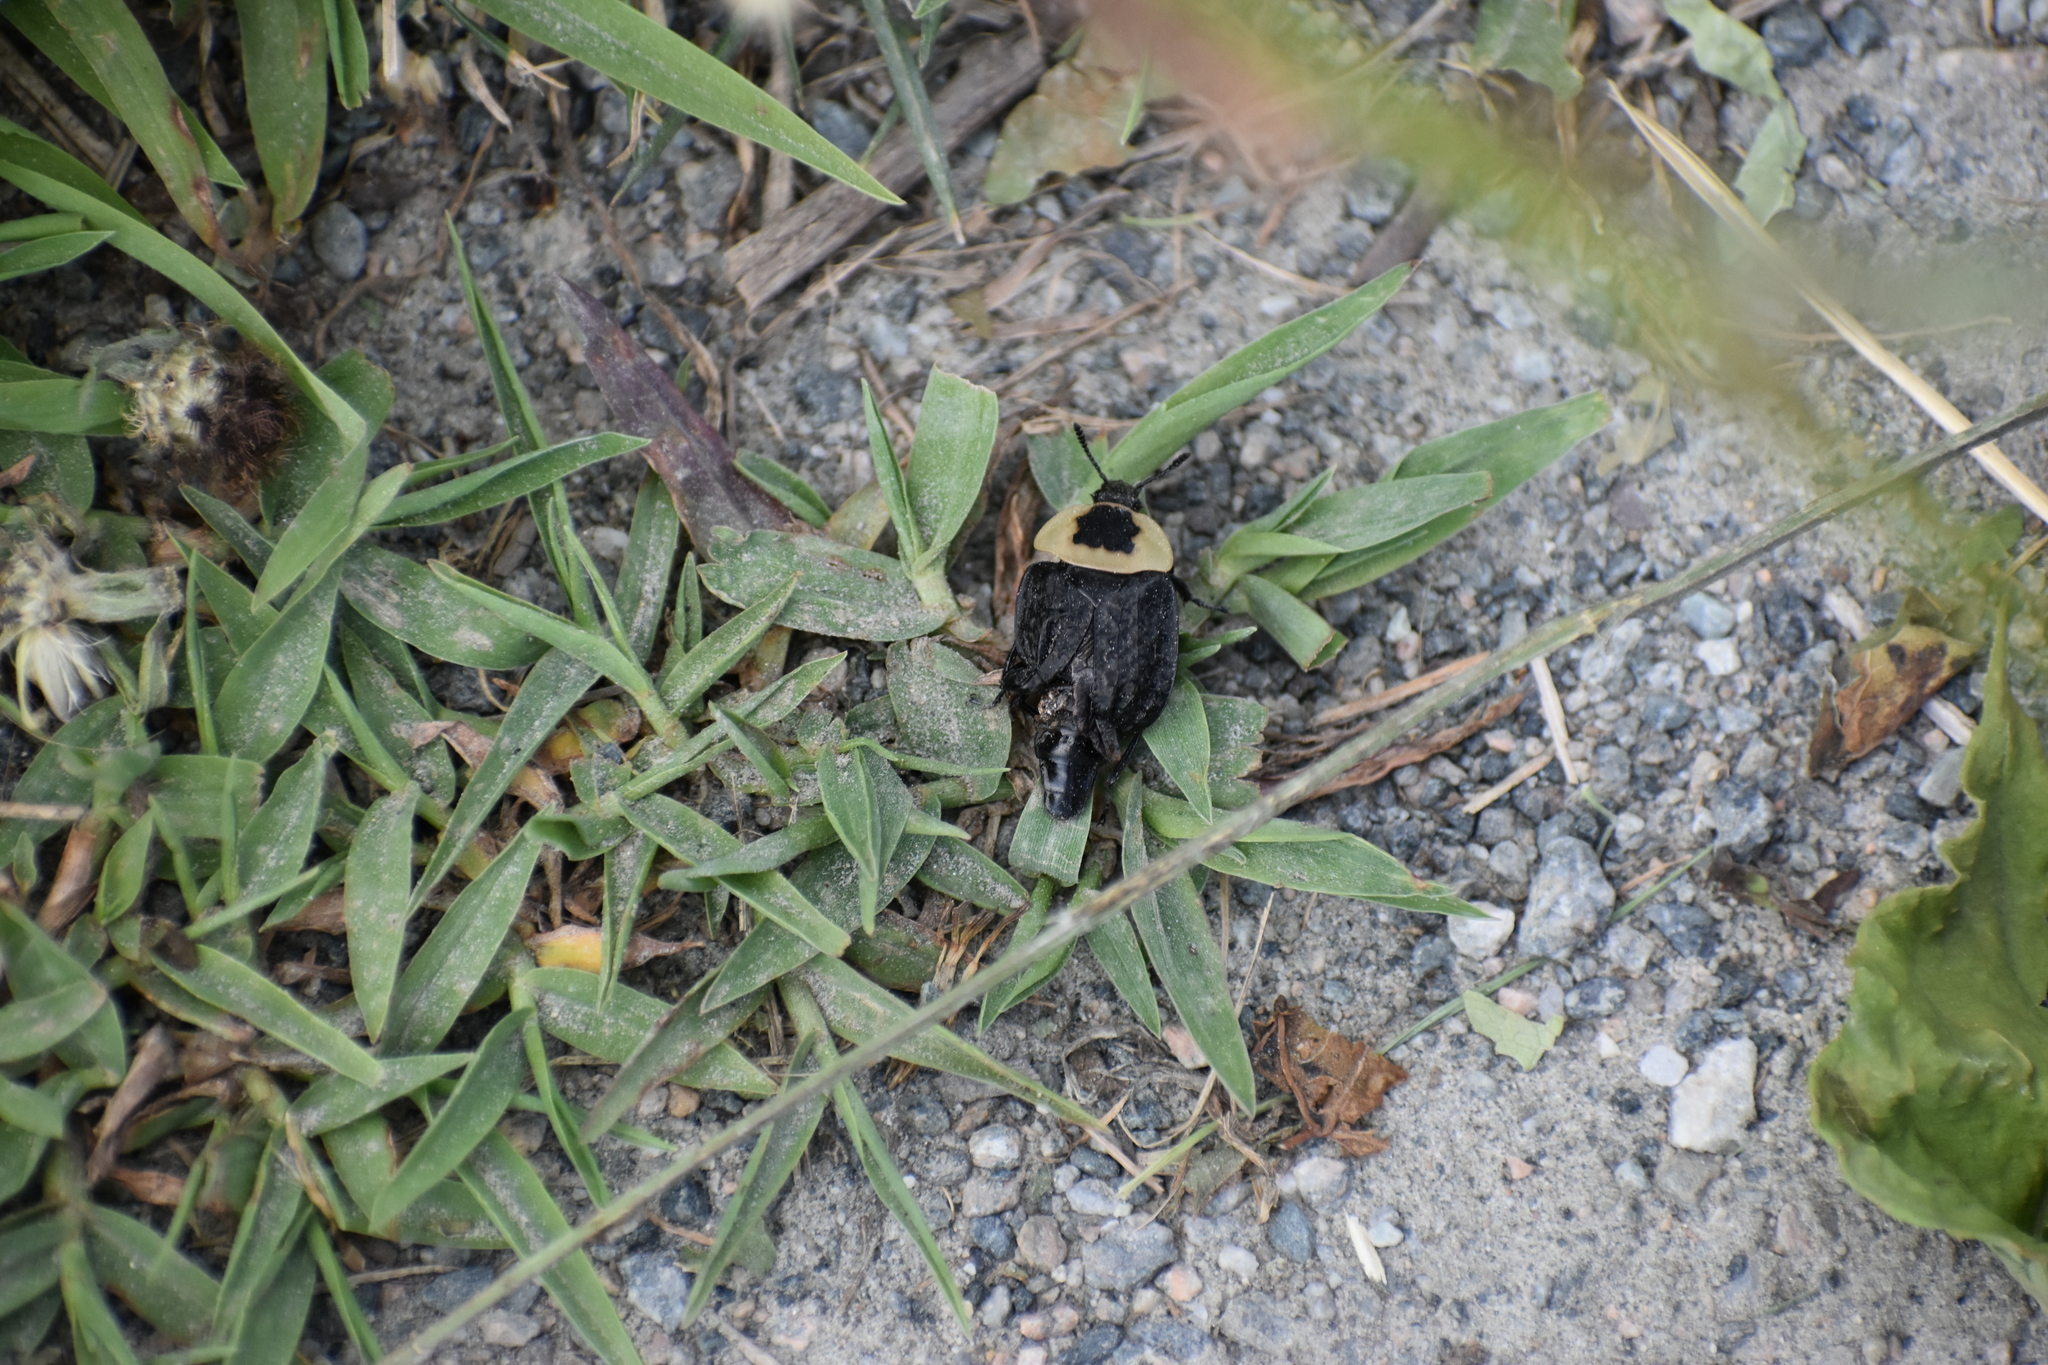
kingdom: Animalia
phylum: Arthropoda
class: Insecta
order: Coleoptera
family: Staphylinidae
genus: Necrophila
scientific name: Necrophila americana
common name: American carrion beetle
